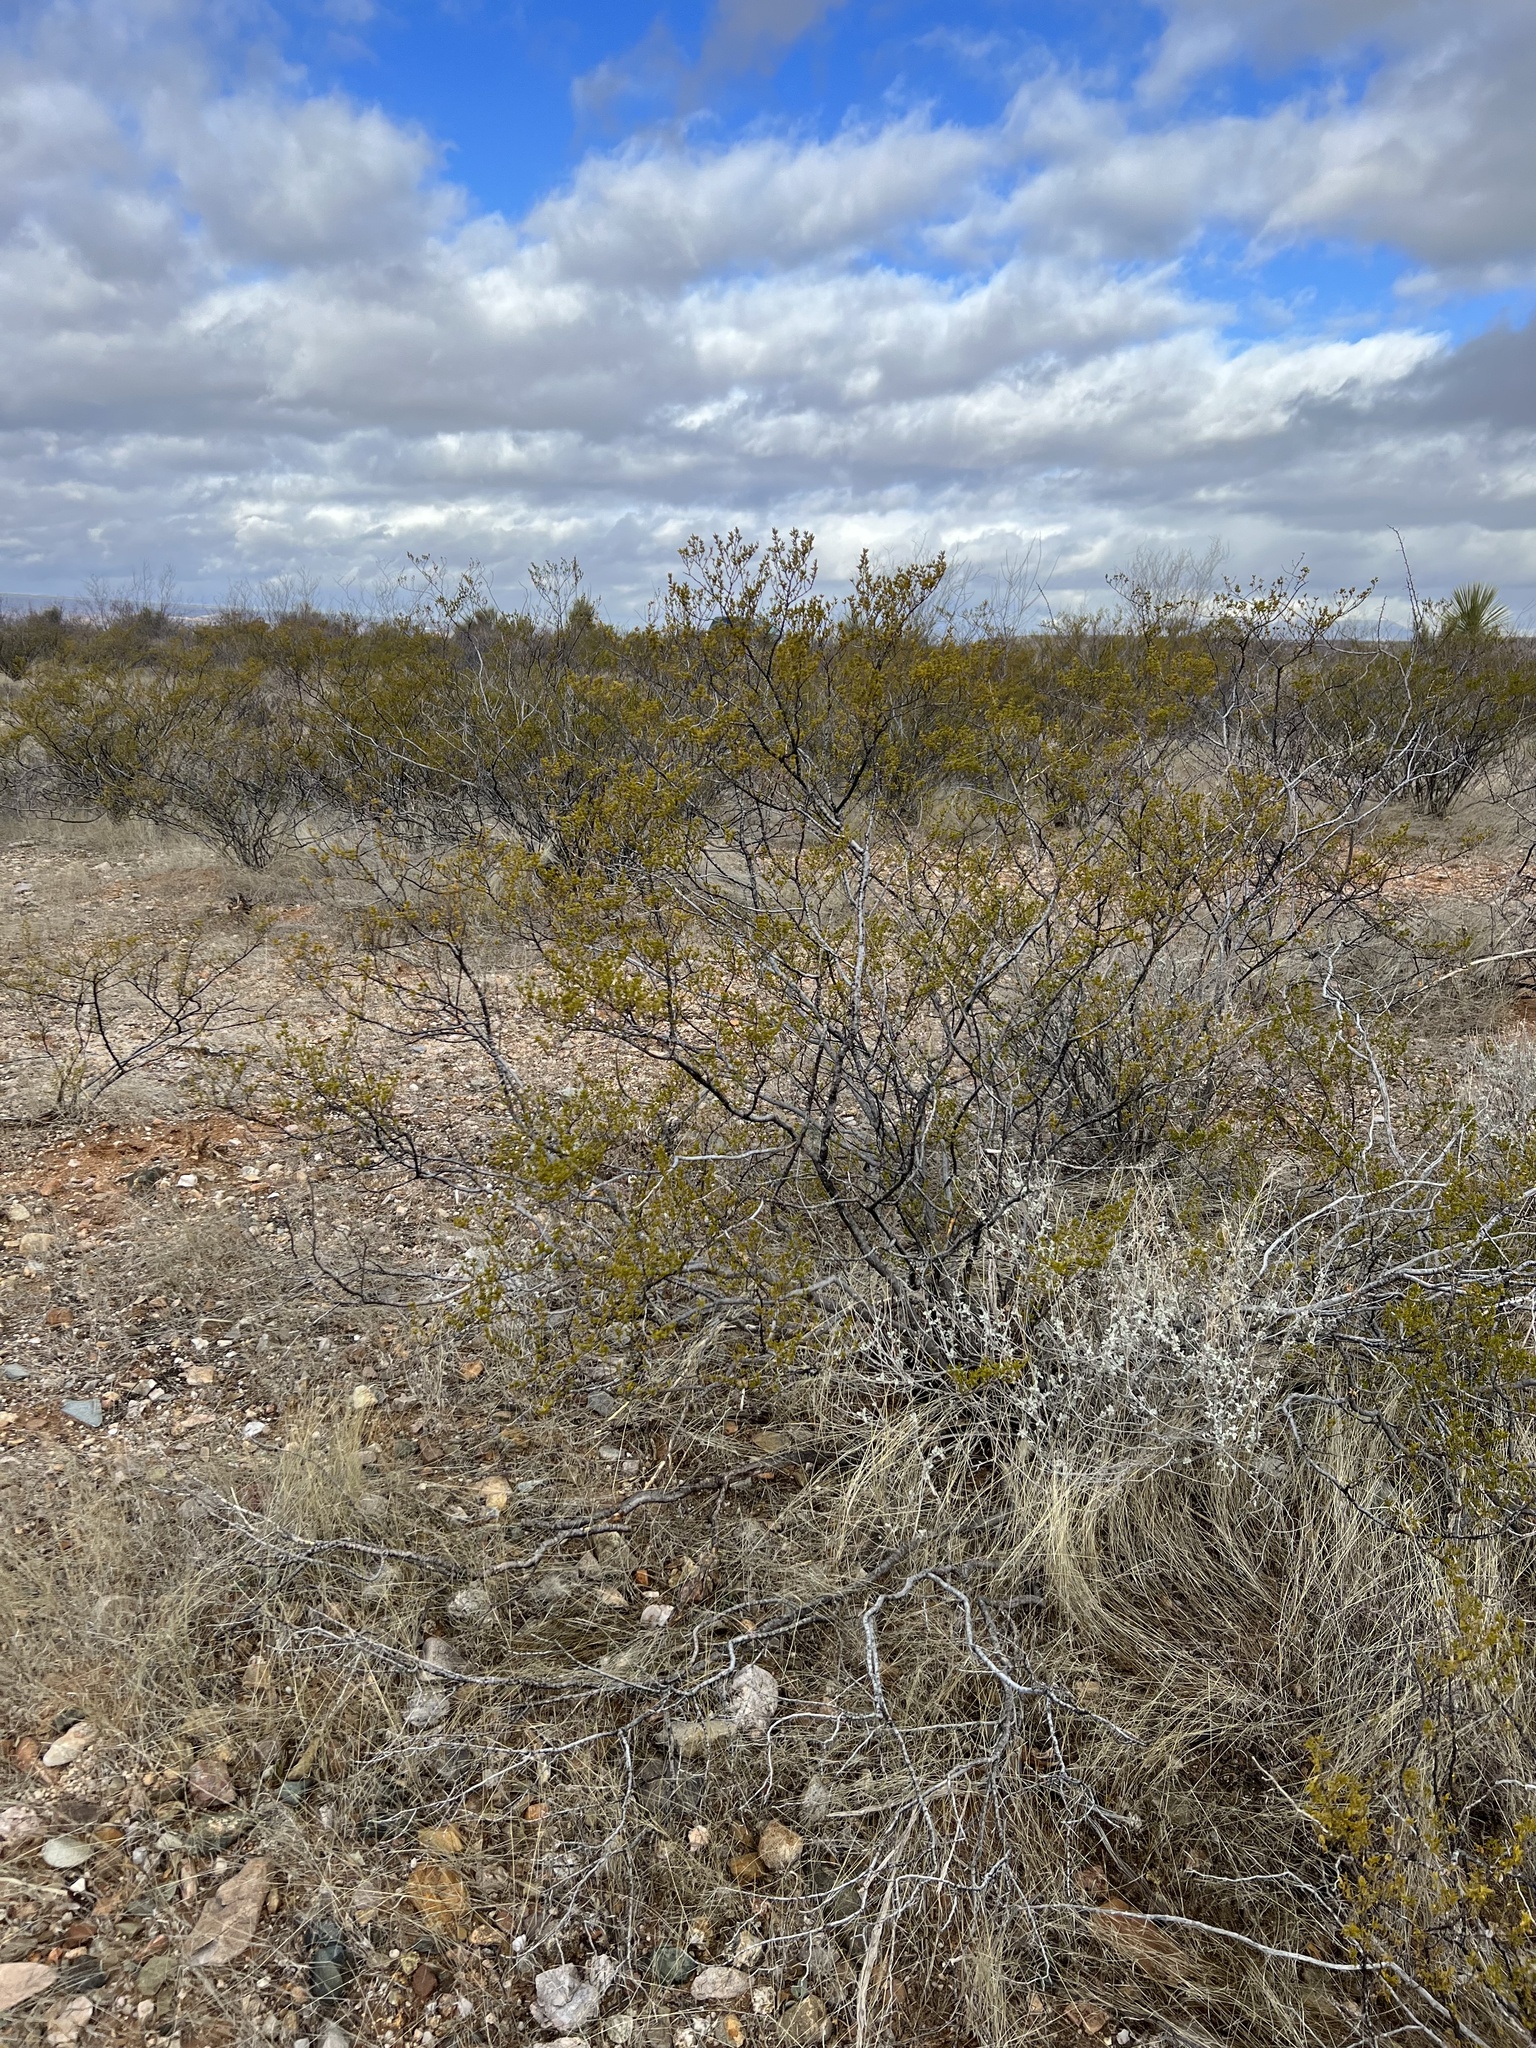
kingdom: Plantae
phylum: Tracheophyta
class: Magnoliopsida
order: Zygophyllales
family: Zygophyllaceae
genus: Larrea
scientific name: Larrea tridentata
